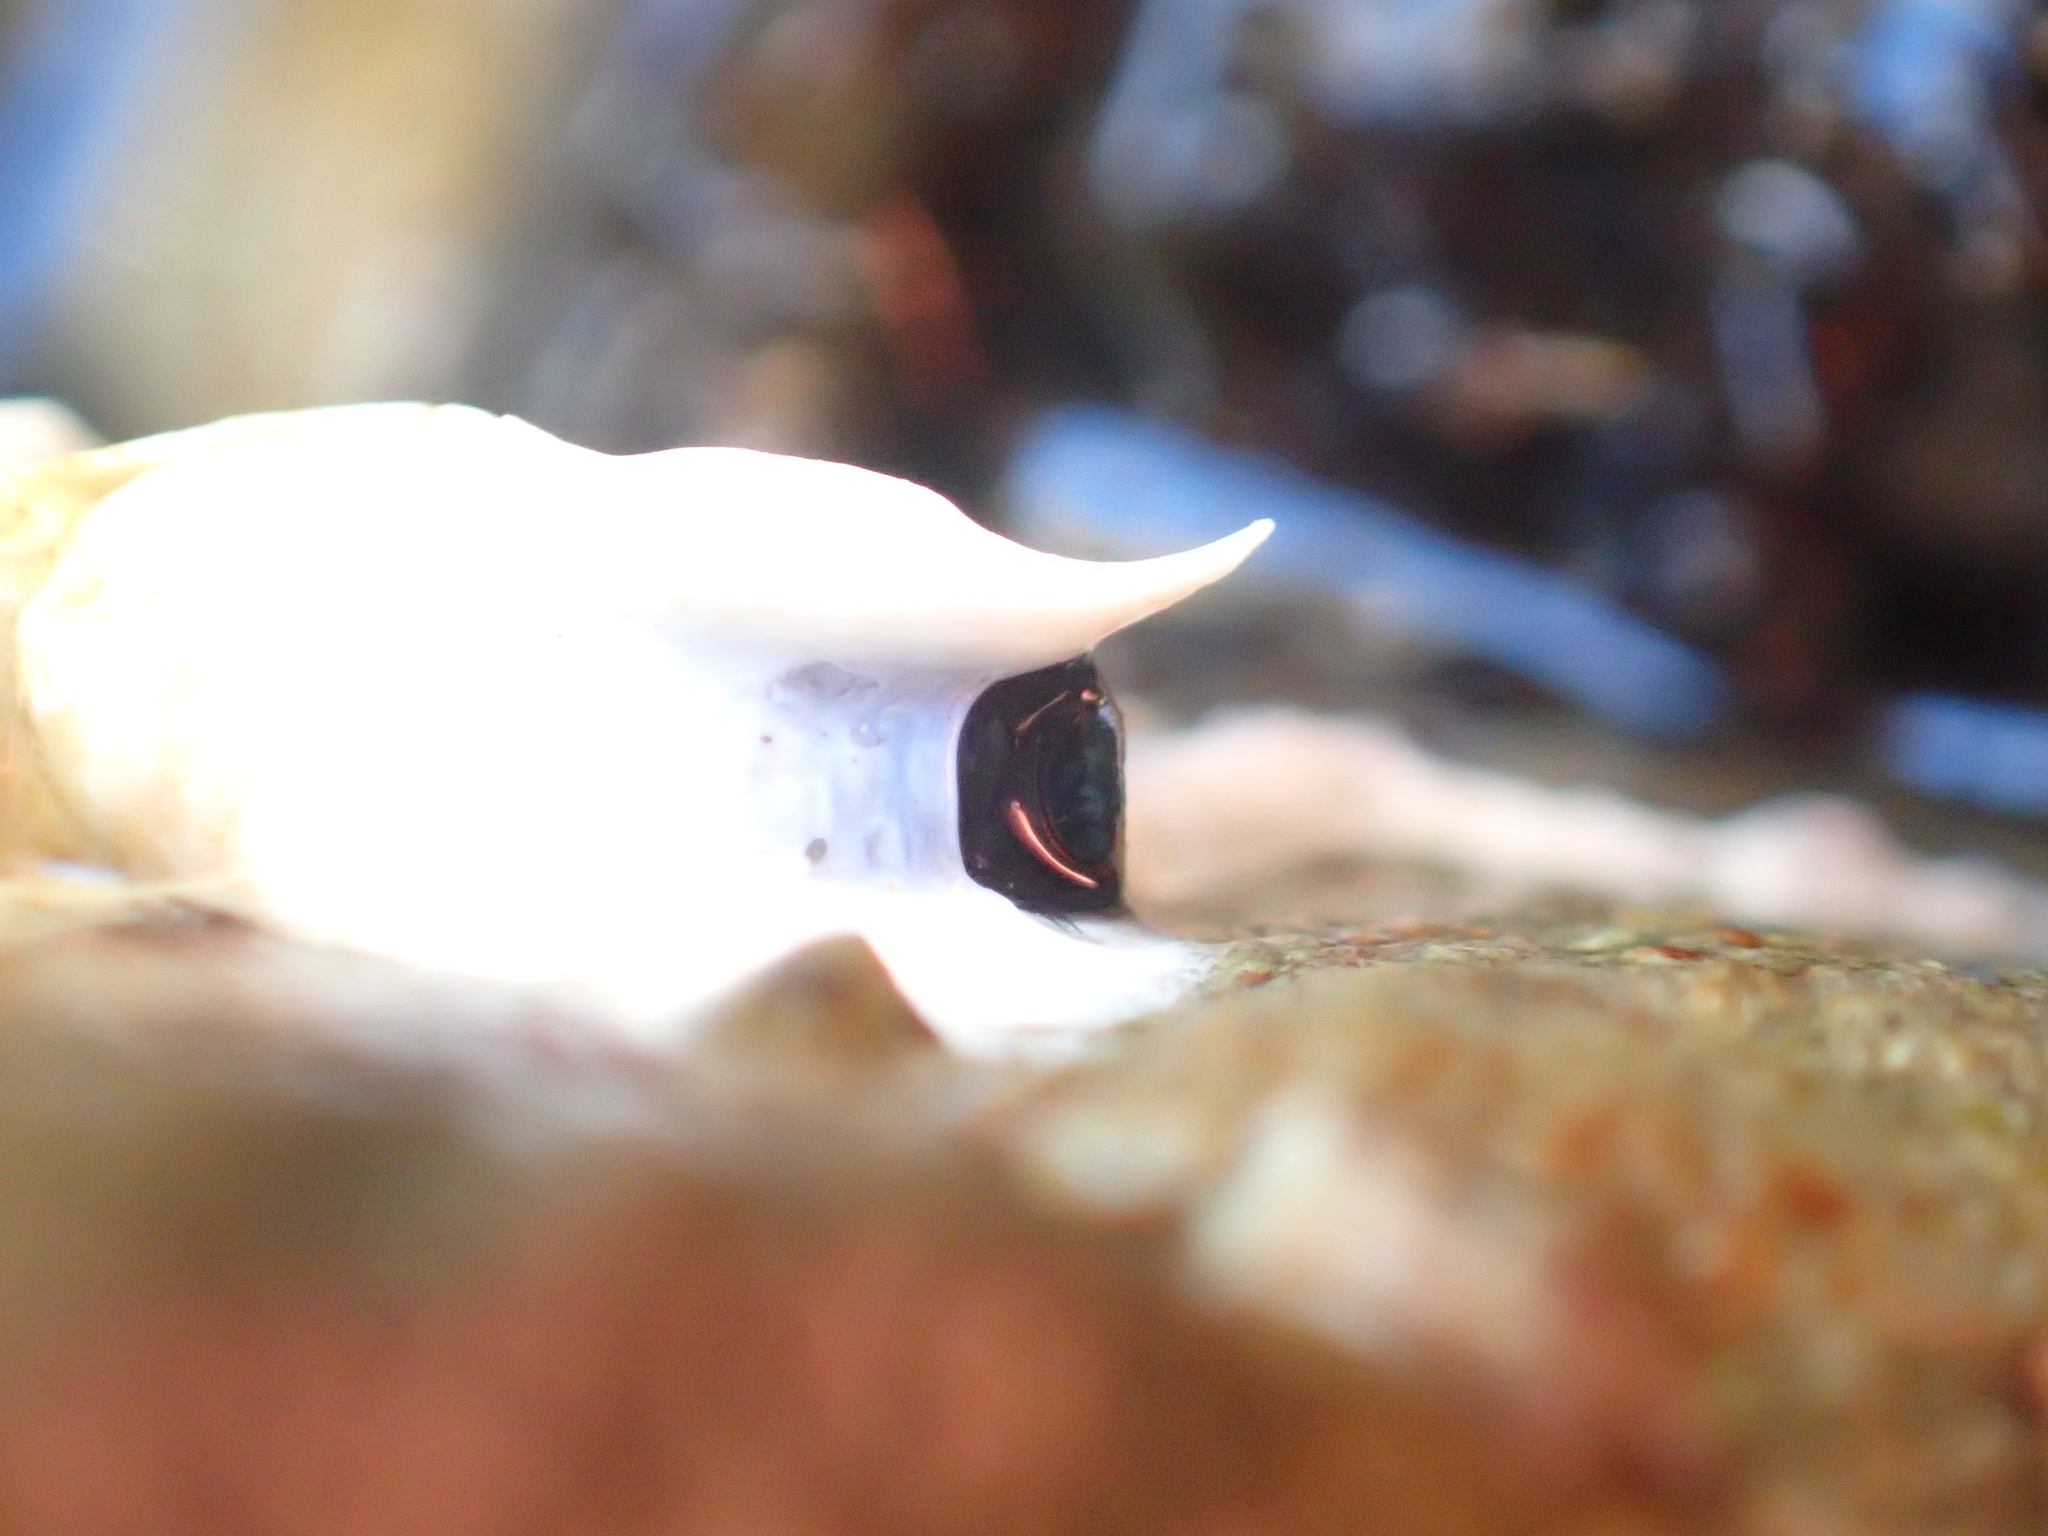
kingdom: Animalia
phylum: Annelida
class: Polychaeta
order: Sabellida
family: Serpulidae
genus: Spirobranchus
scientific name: Spirobranchus cariniferus
